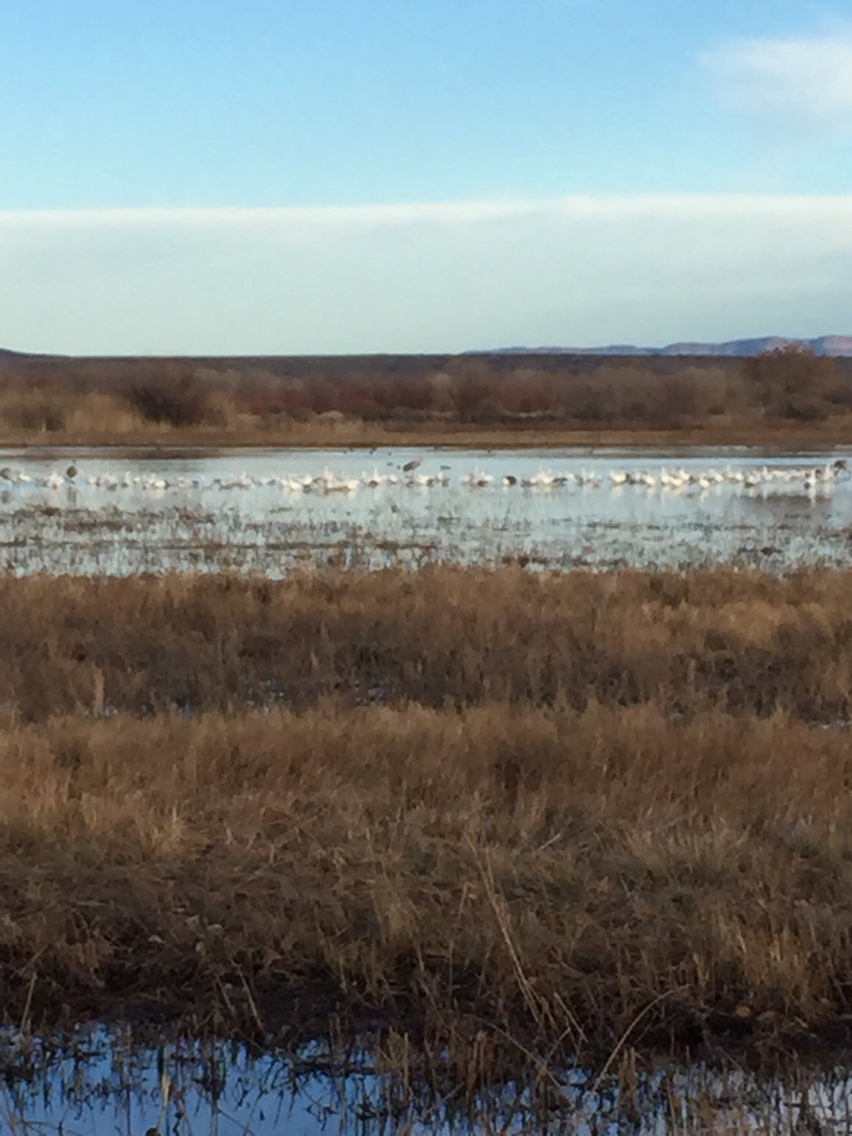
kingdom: Animalia
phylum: Chordata
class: Aves
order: Gruiformes
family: Gruidae
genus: Grus
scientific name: Grus canadensis
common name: Sandhill crane
